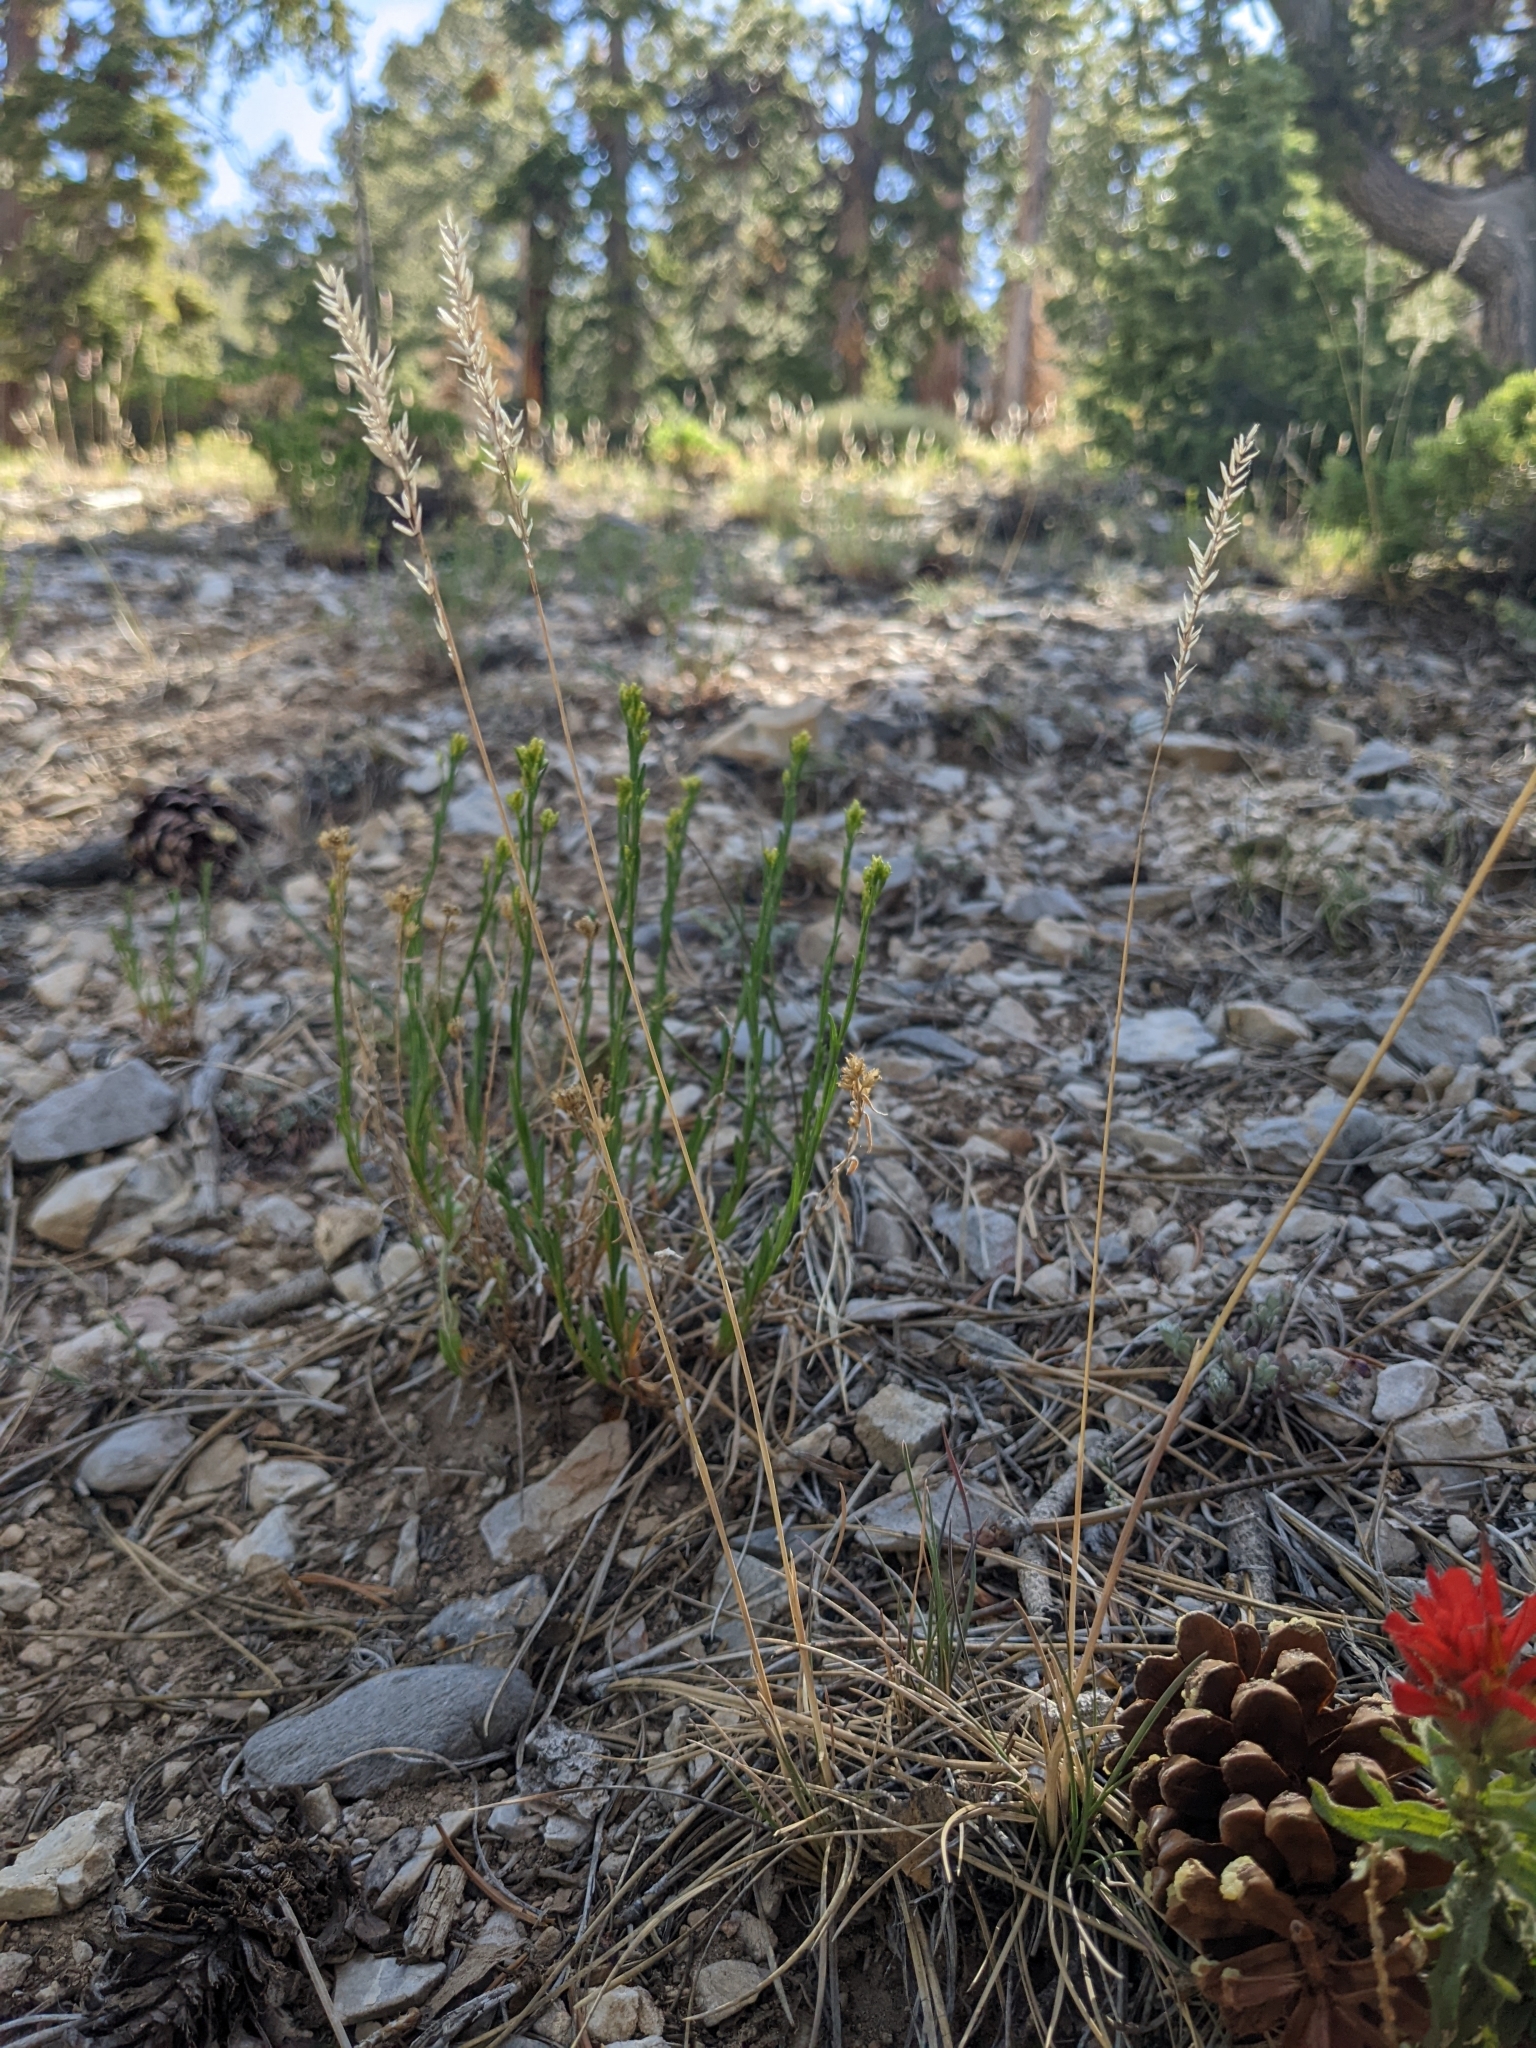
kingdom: Plantae
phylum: Tracheophyta
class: Liliopsida
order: Poales
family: Poaceae
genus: Poa
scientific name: Poa secunda
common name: Sandberg bluegrass
